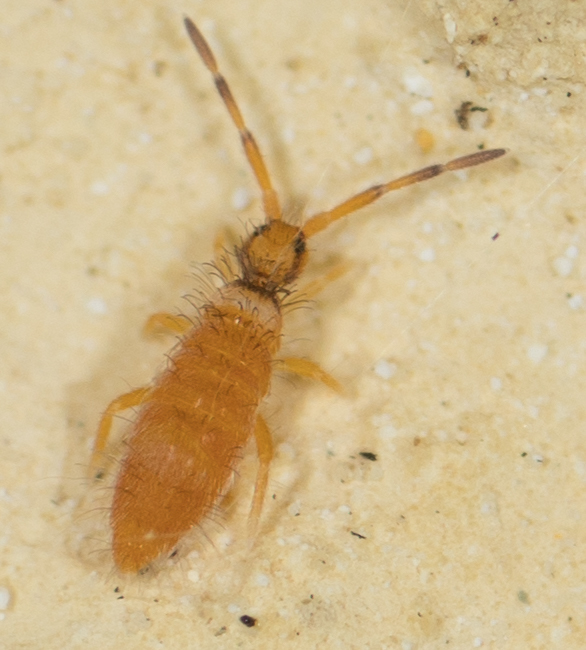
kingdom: Animalia
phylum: Arthropoda
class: Collembola
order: Entomobryomorpha
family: Entomobryidae
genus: Entomobrya
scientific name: Entomobrya atrocincta
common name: Springtail
